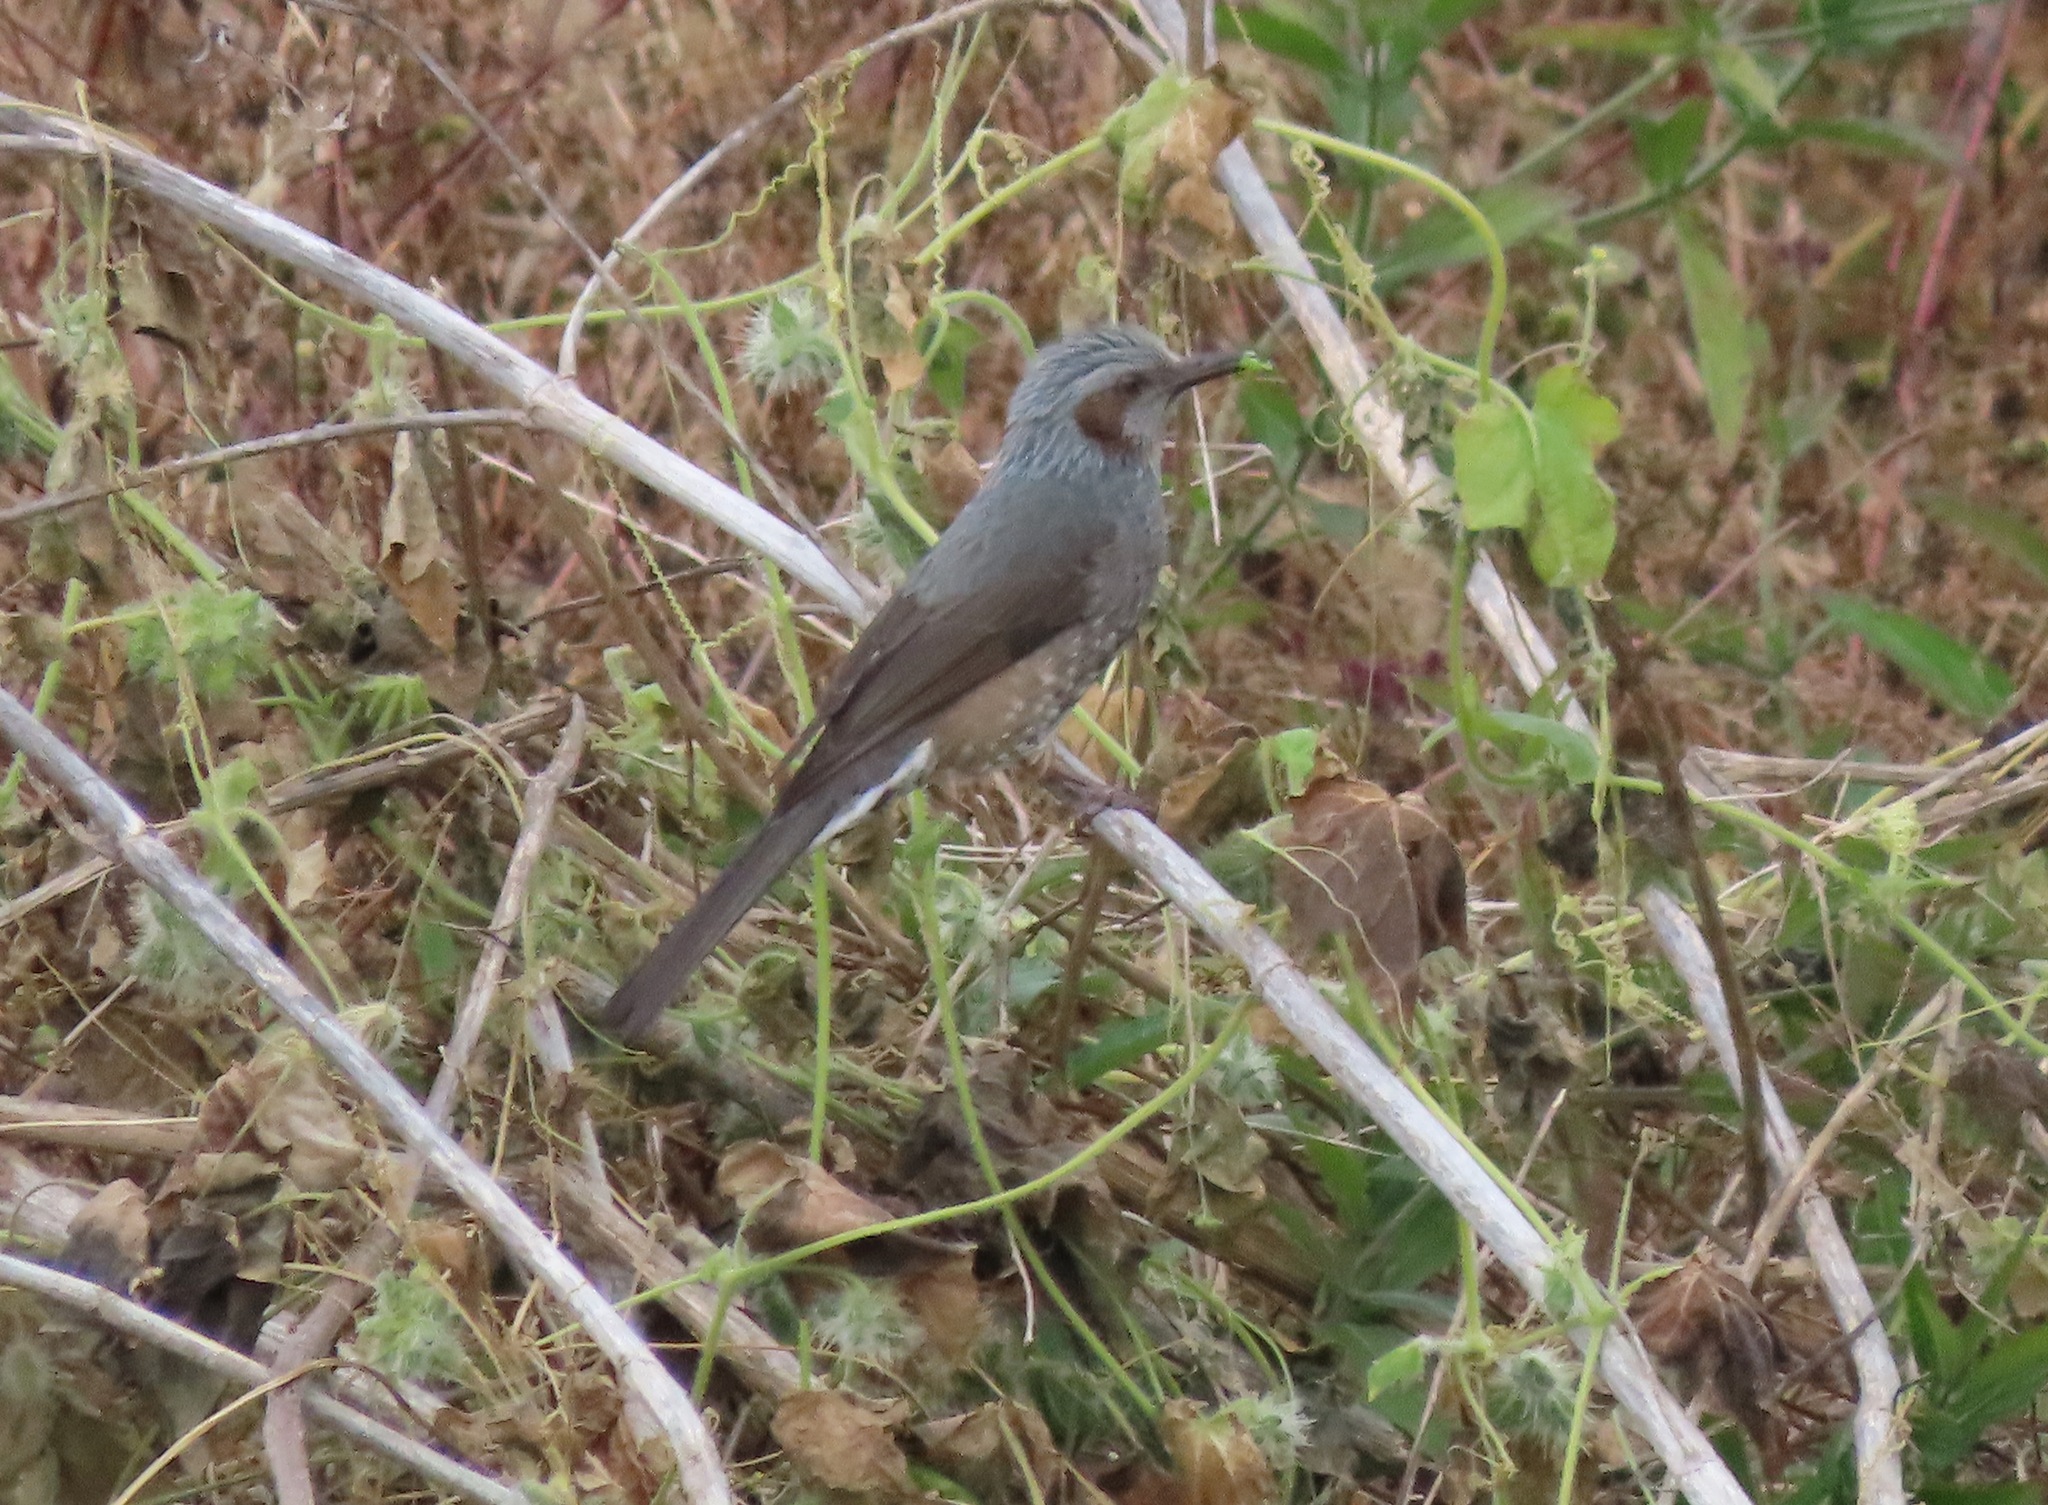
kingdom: Animalia
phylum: Chordata
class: Aves
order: Passeriformes
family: Pycnonotidae
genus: Hypsipetes
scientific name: Hypsipetes amaurotis
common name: Brown-eared bulbul
